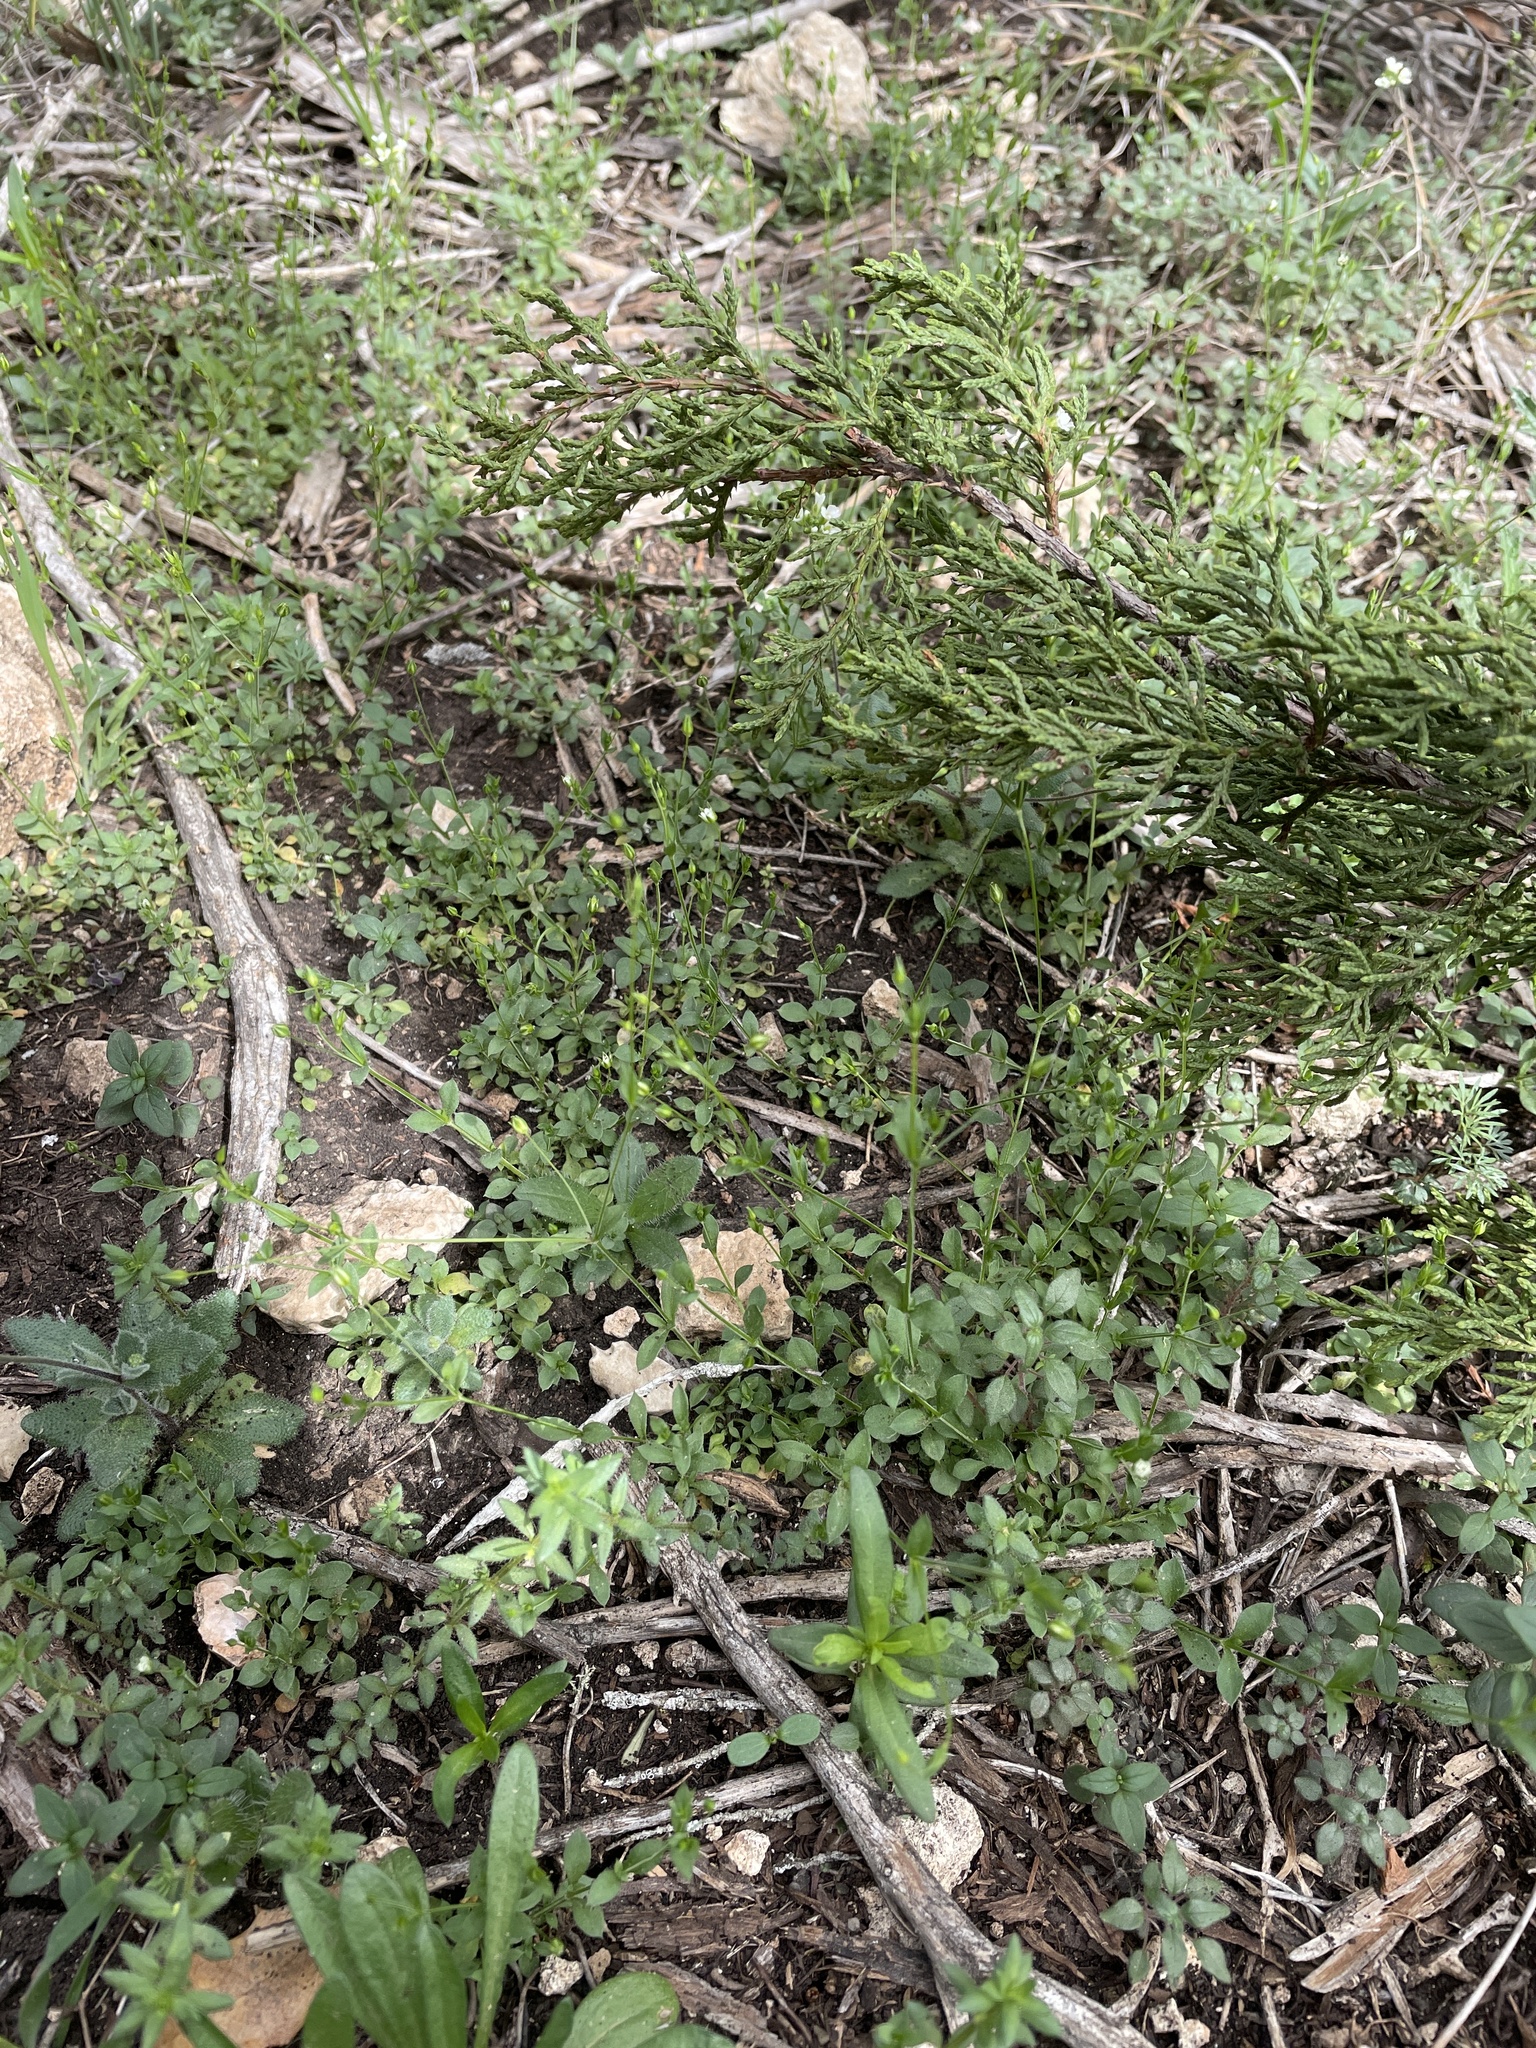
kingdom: Plantae
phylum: Tracheophyta
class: Magnoliopsida
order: Caryophyllales
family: Caryophyllaceae
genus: Arenaria
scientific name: Arenaria benthamii
